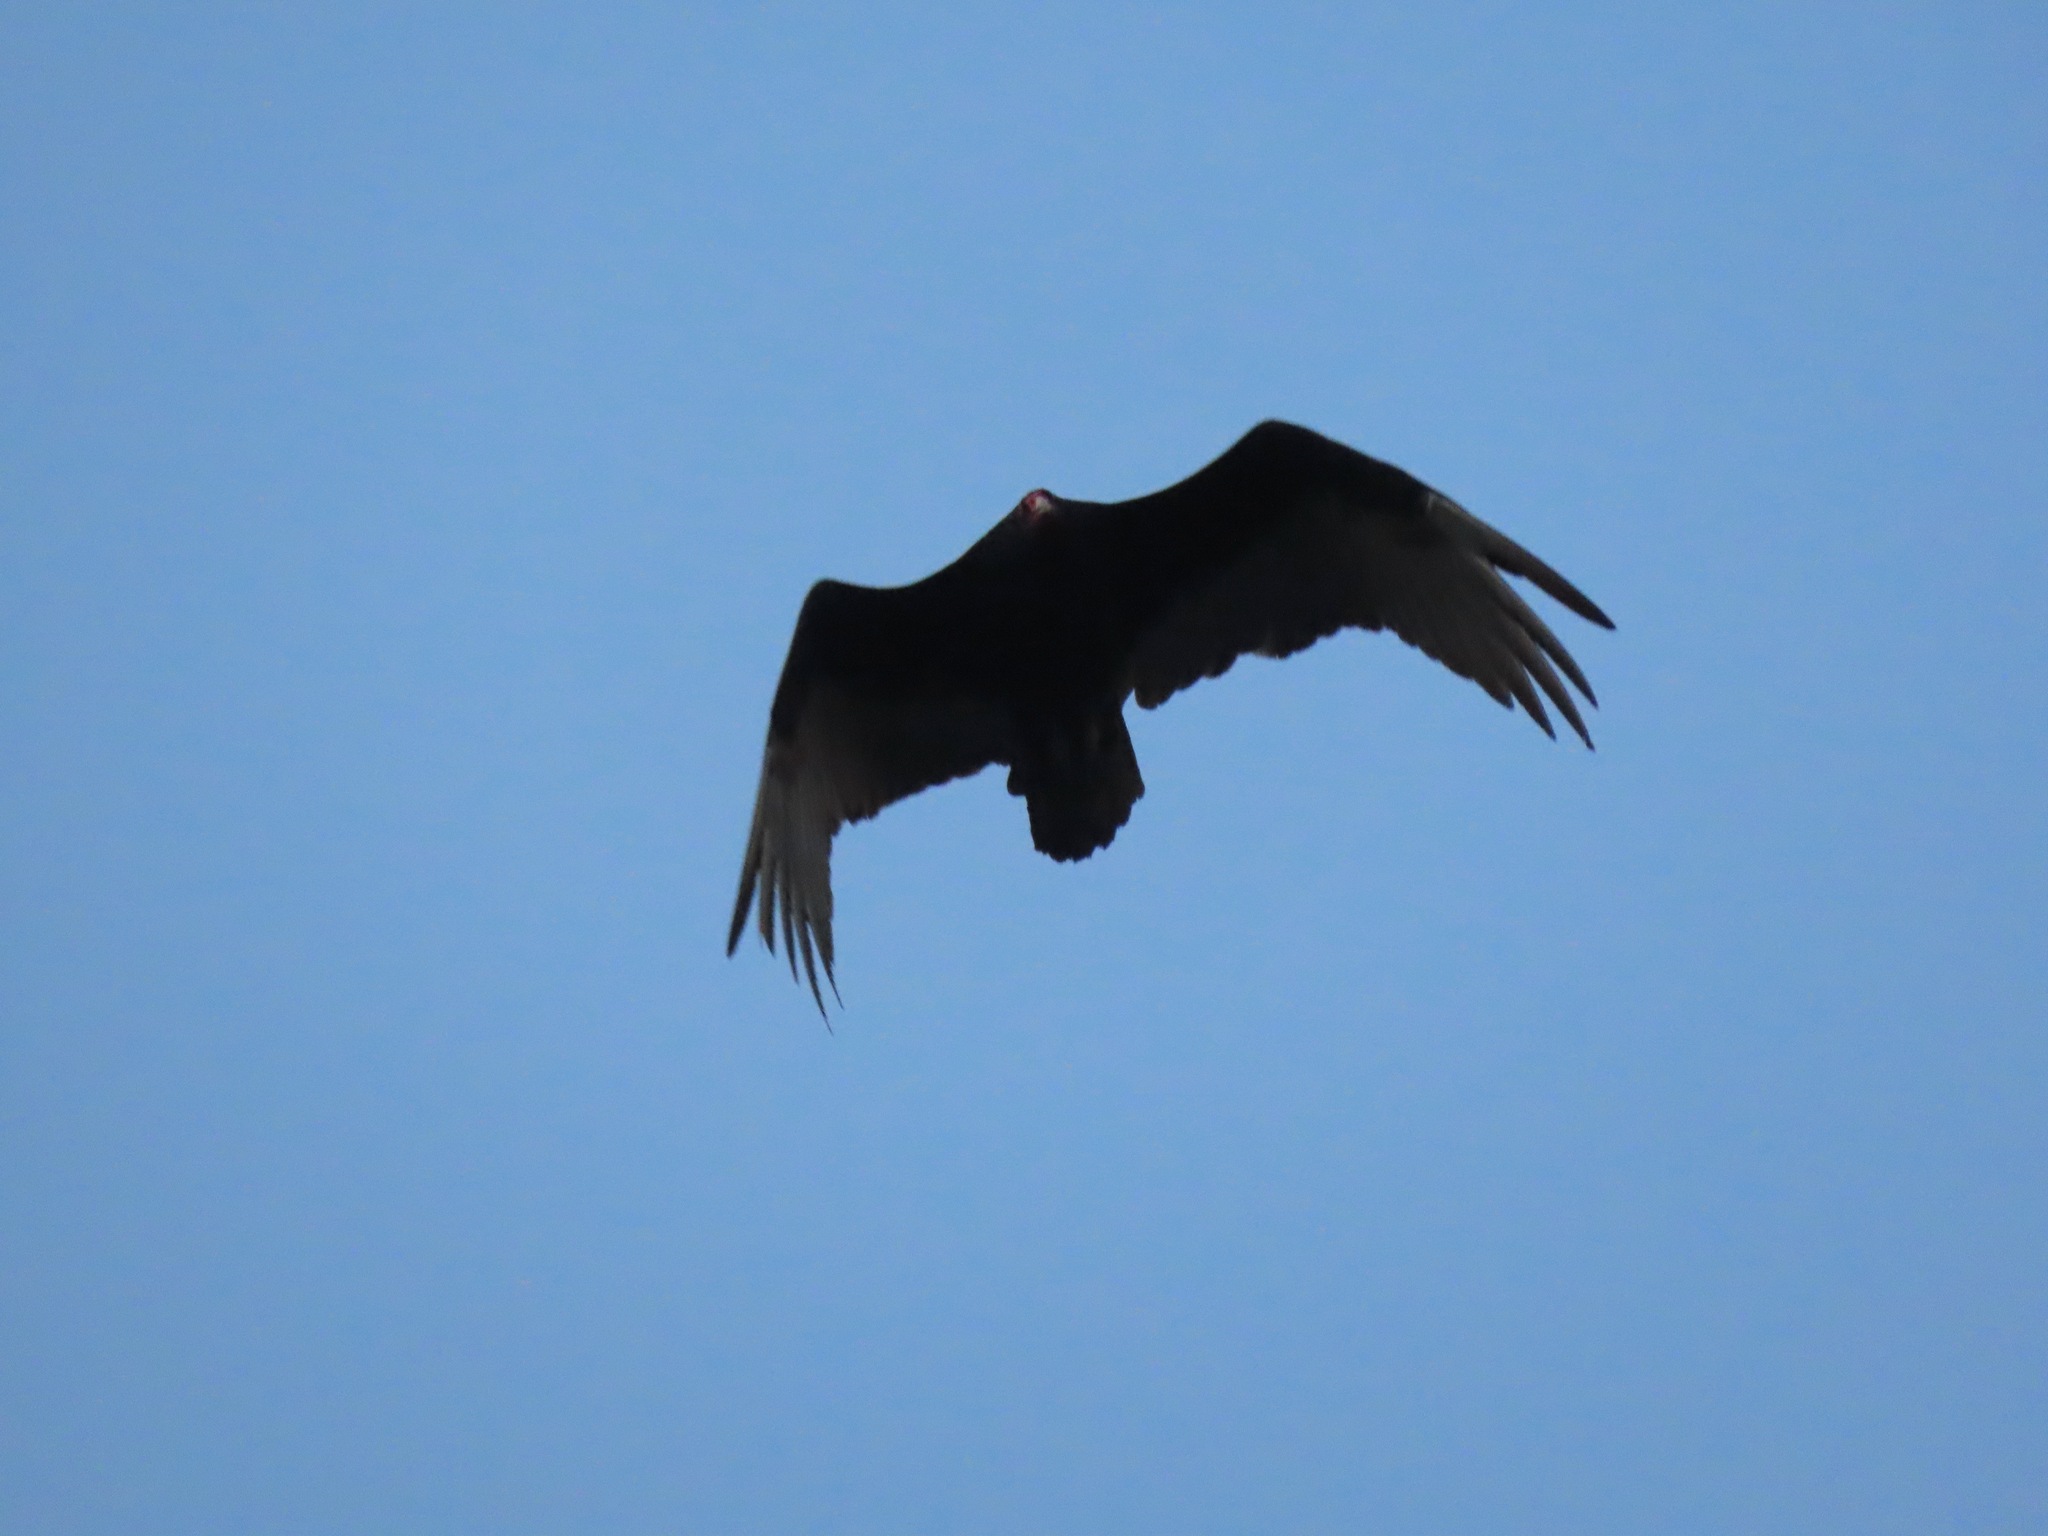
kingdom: Animalia
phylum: Chordata
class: Aves
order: Accipitriformes
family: Cathartidae
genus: Cathartes
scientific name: Cathartes aura
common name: Turkey vulture
